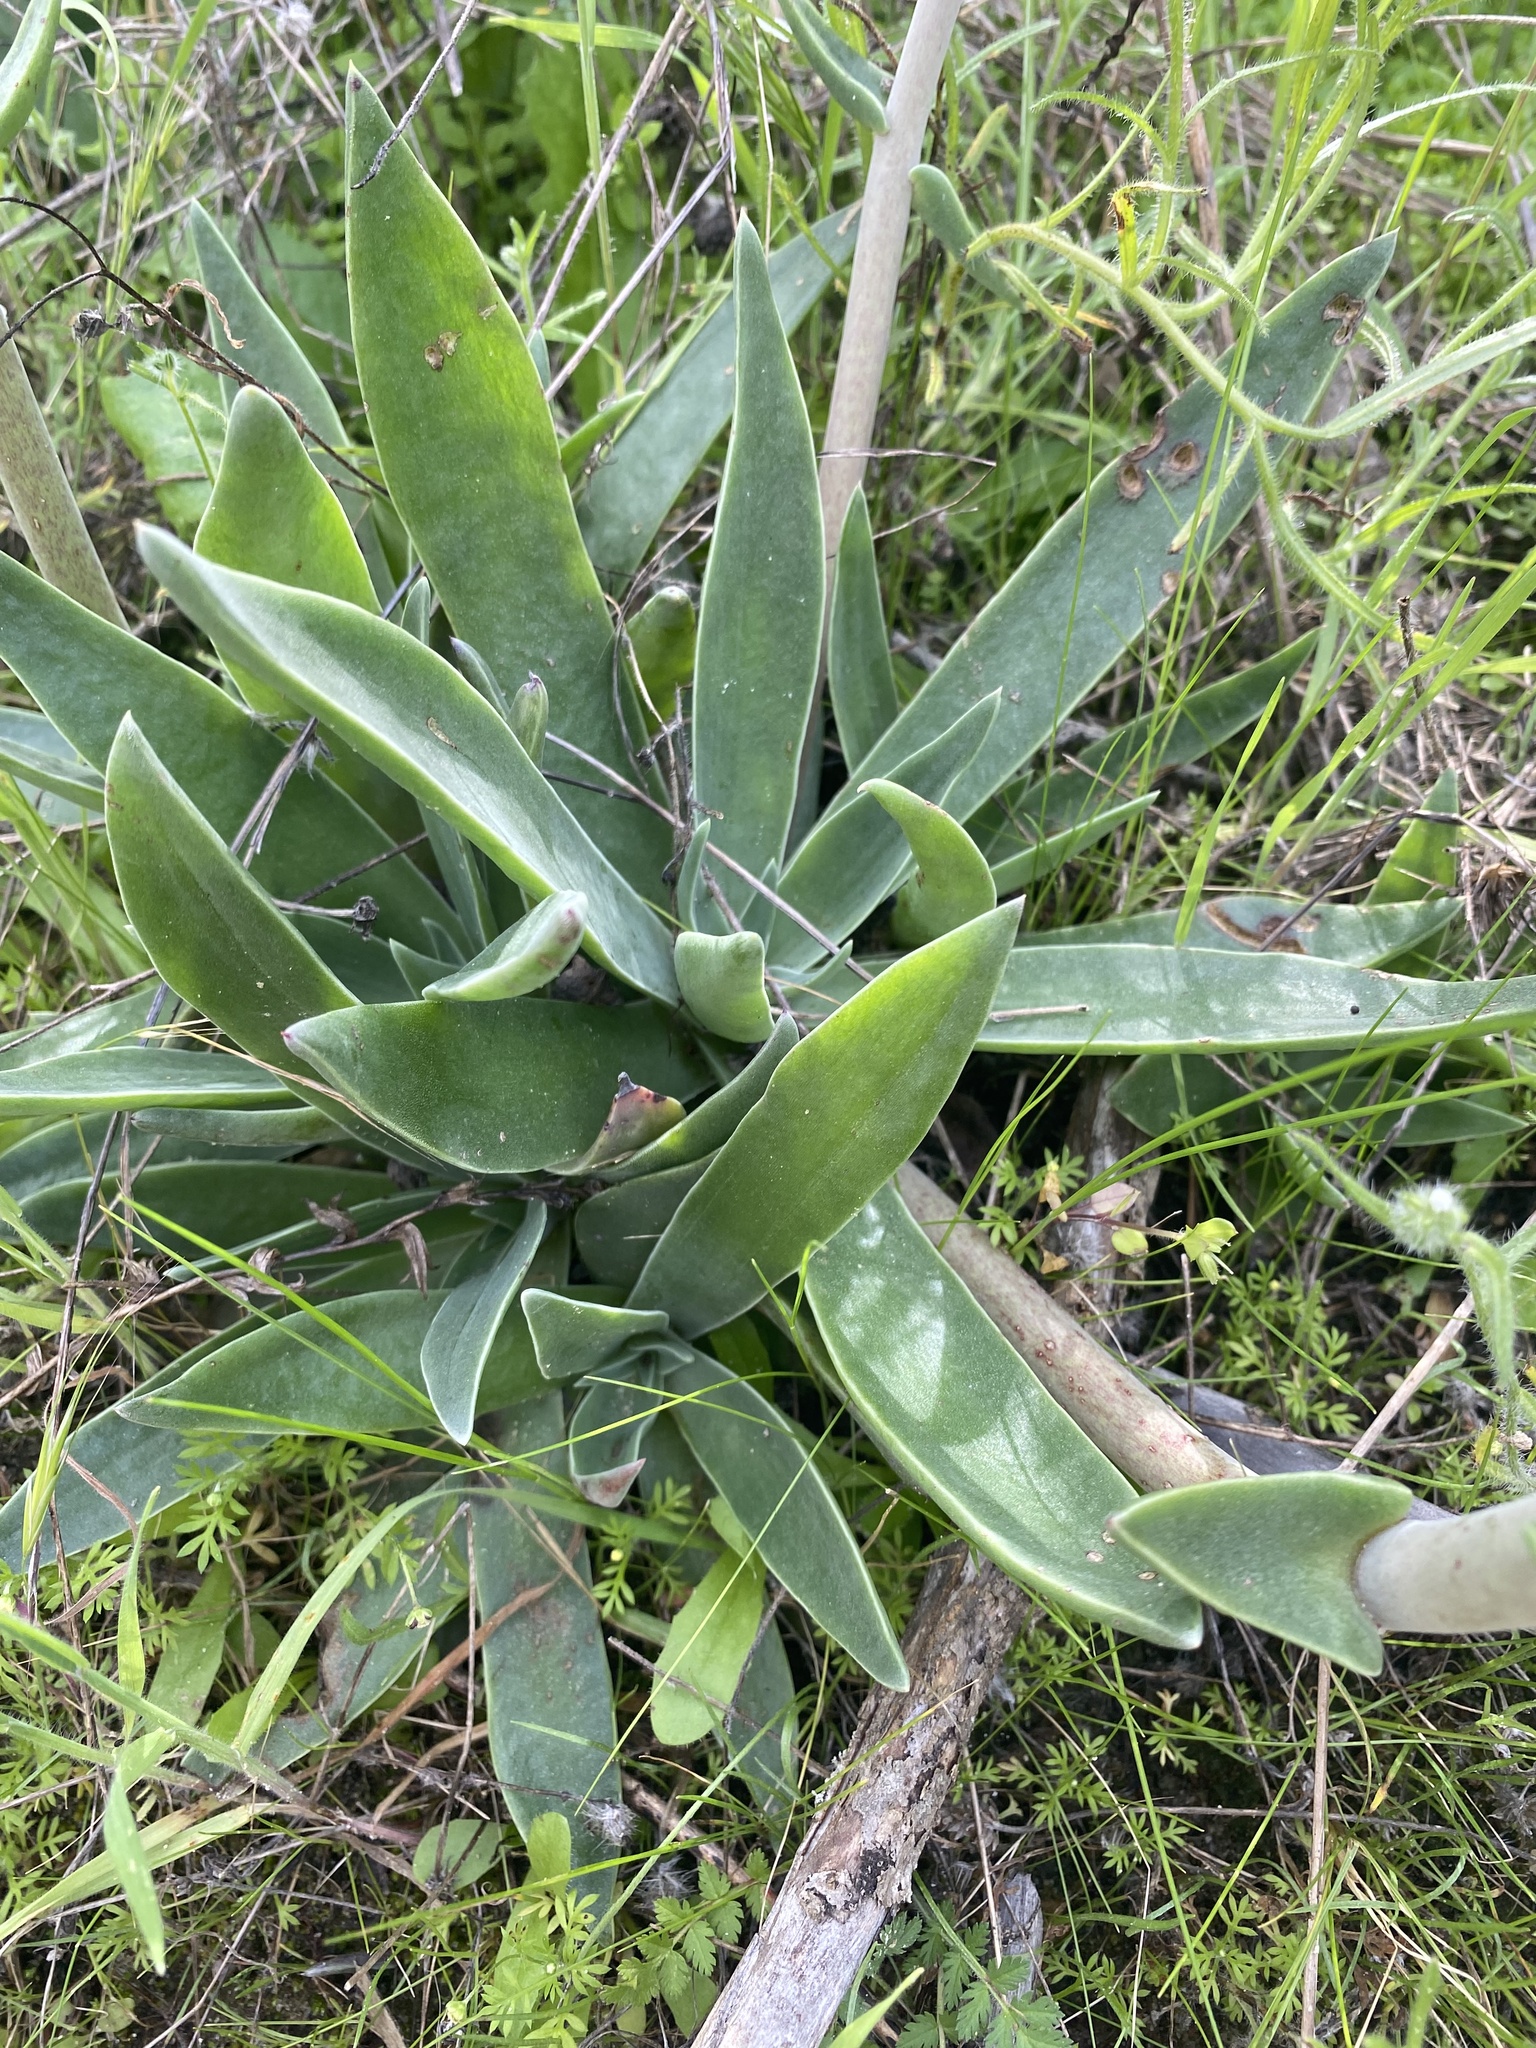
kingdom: Plantae
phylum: Tracheophyta
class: Magnoliopsida
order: Saxifragales
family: Crassulaceae
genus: Dudleya
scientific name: Dudleya lanceolata
